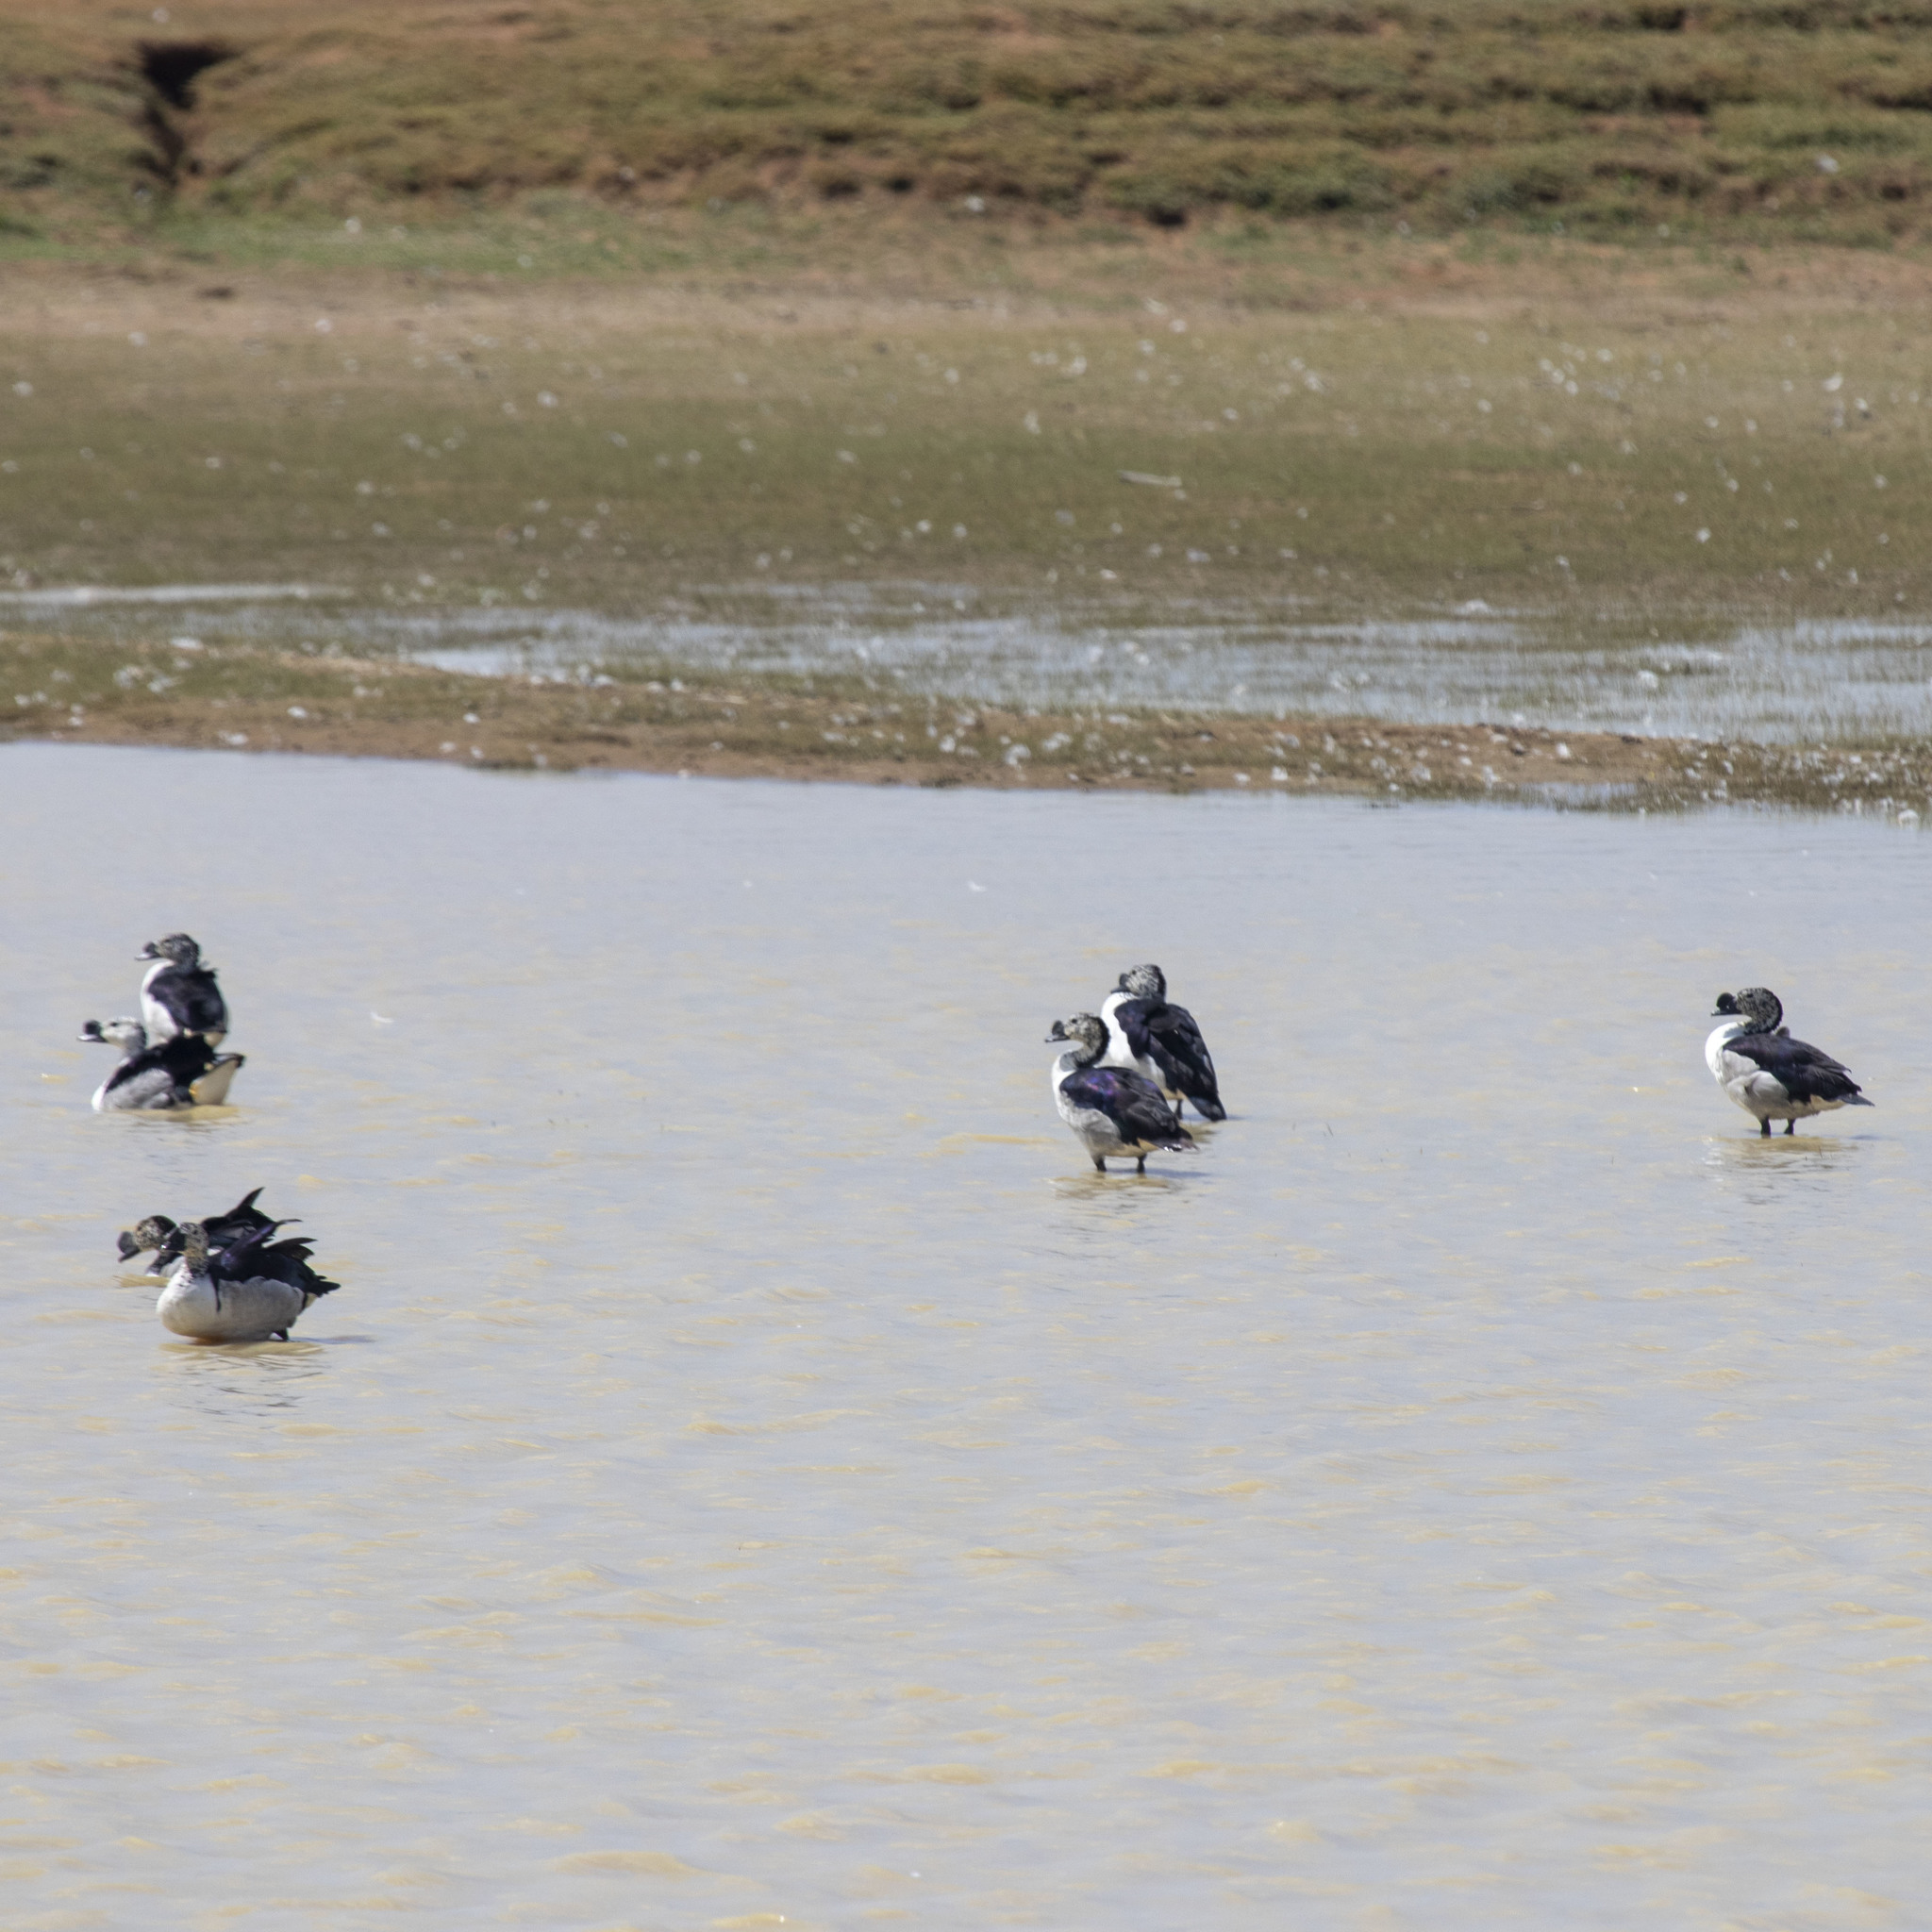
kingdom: Animalia
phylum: Chordata
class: Aves
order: Anseriformes
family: Anatidae
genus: Sarkidiornis
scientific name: Sarkidiornis melanotos
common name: Comb duck
